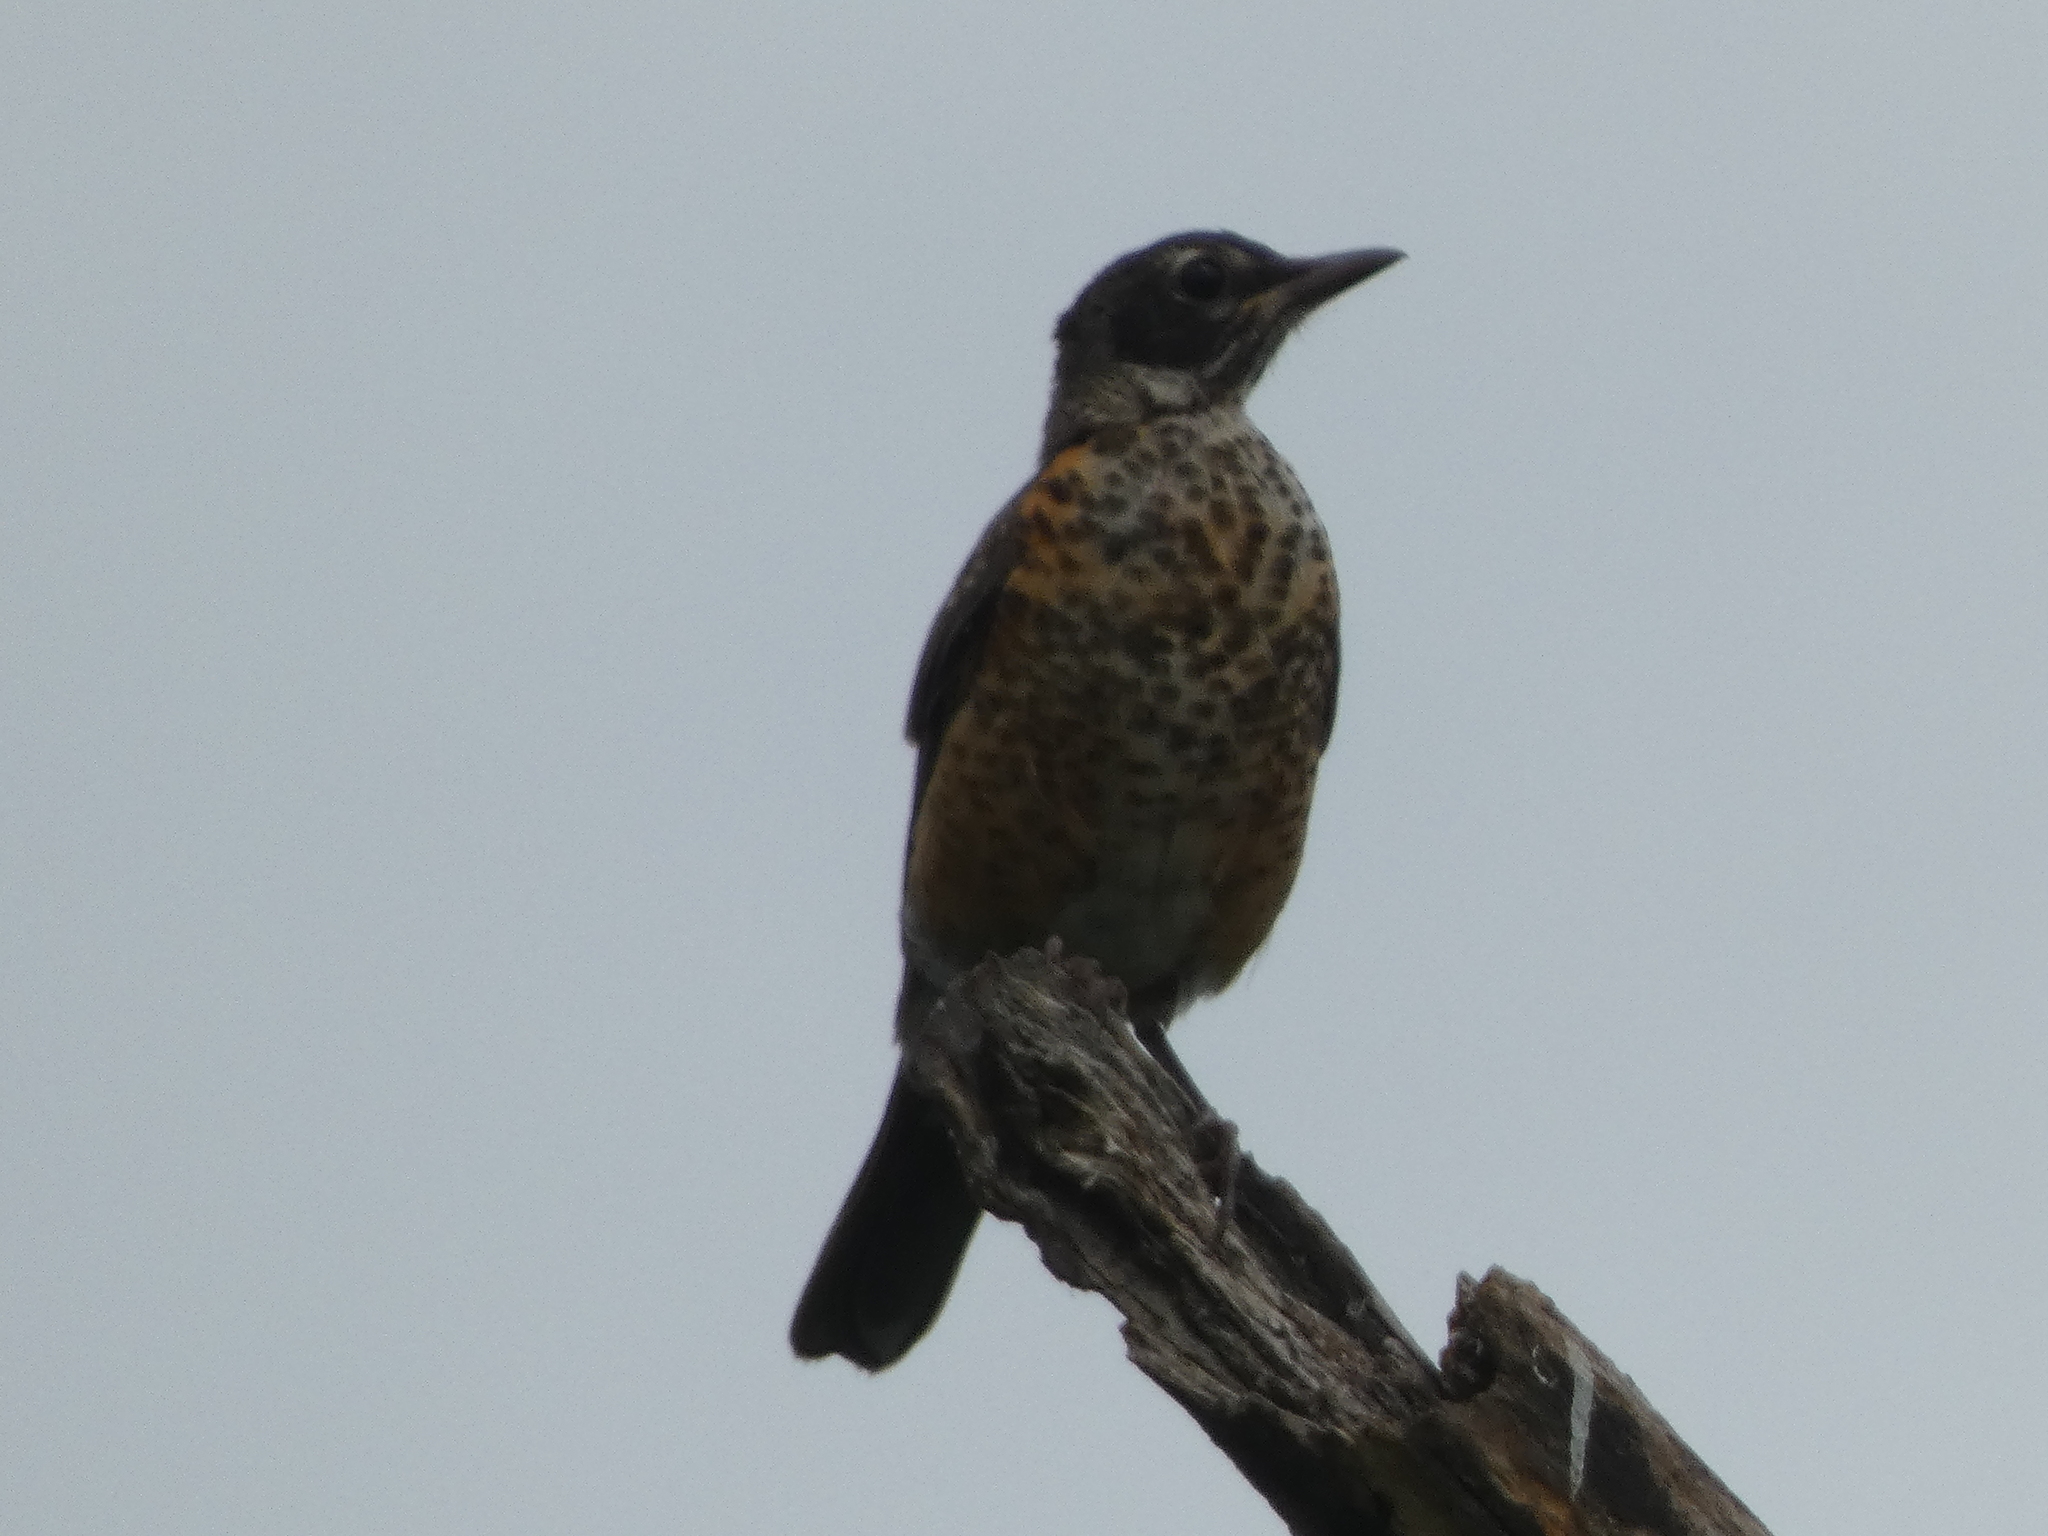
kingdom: Animalia
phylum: Chordata
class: Aves
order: Passeriformes
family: Turdidae
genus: Turdus
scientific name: Turdus migratorius
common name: American robin
